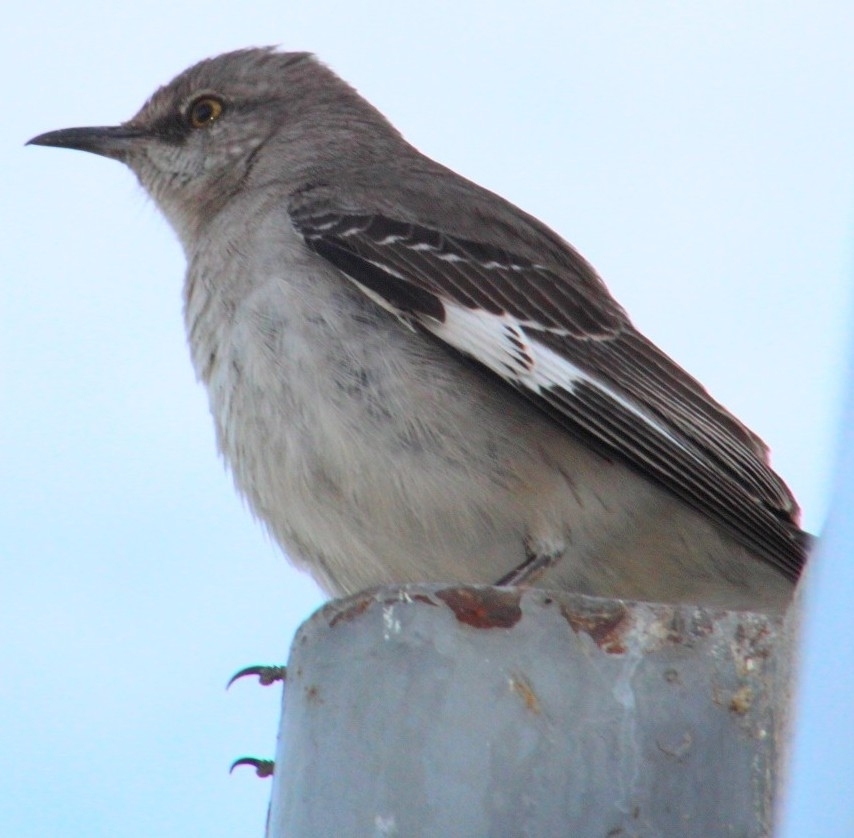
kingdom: Animalia
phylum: Chordata
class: Aves
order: Passeriformes
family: Mimidae
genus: Mimus
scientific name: Mimus polyglottos
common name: Northern mockingbird
